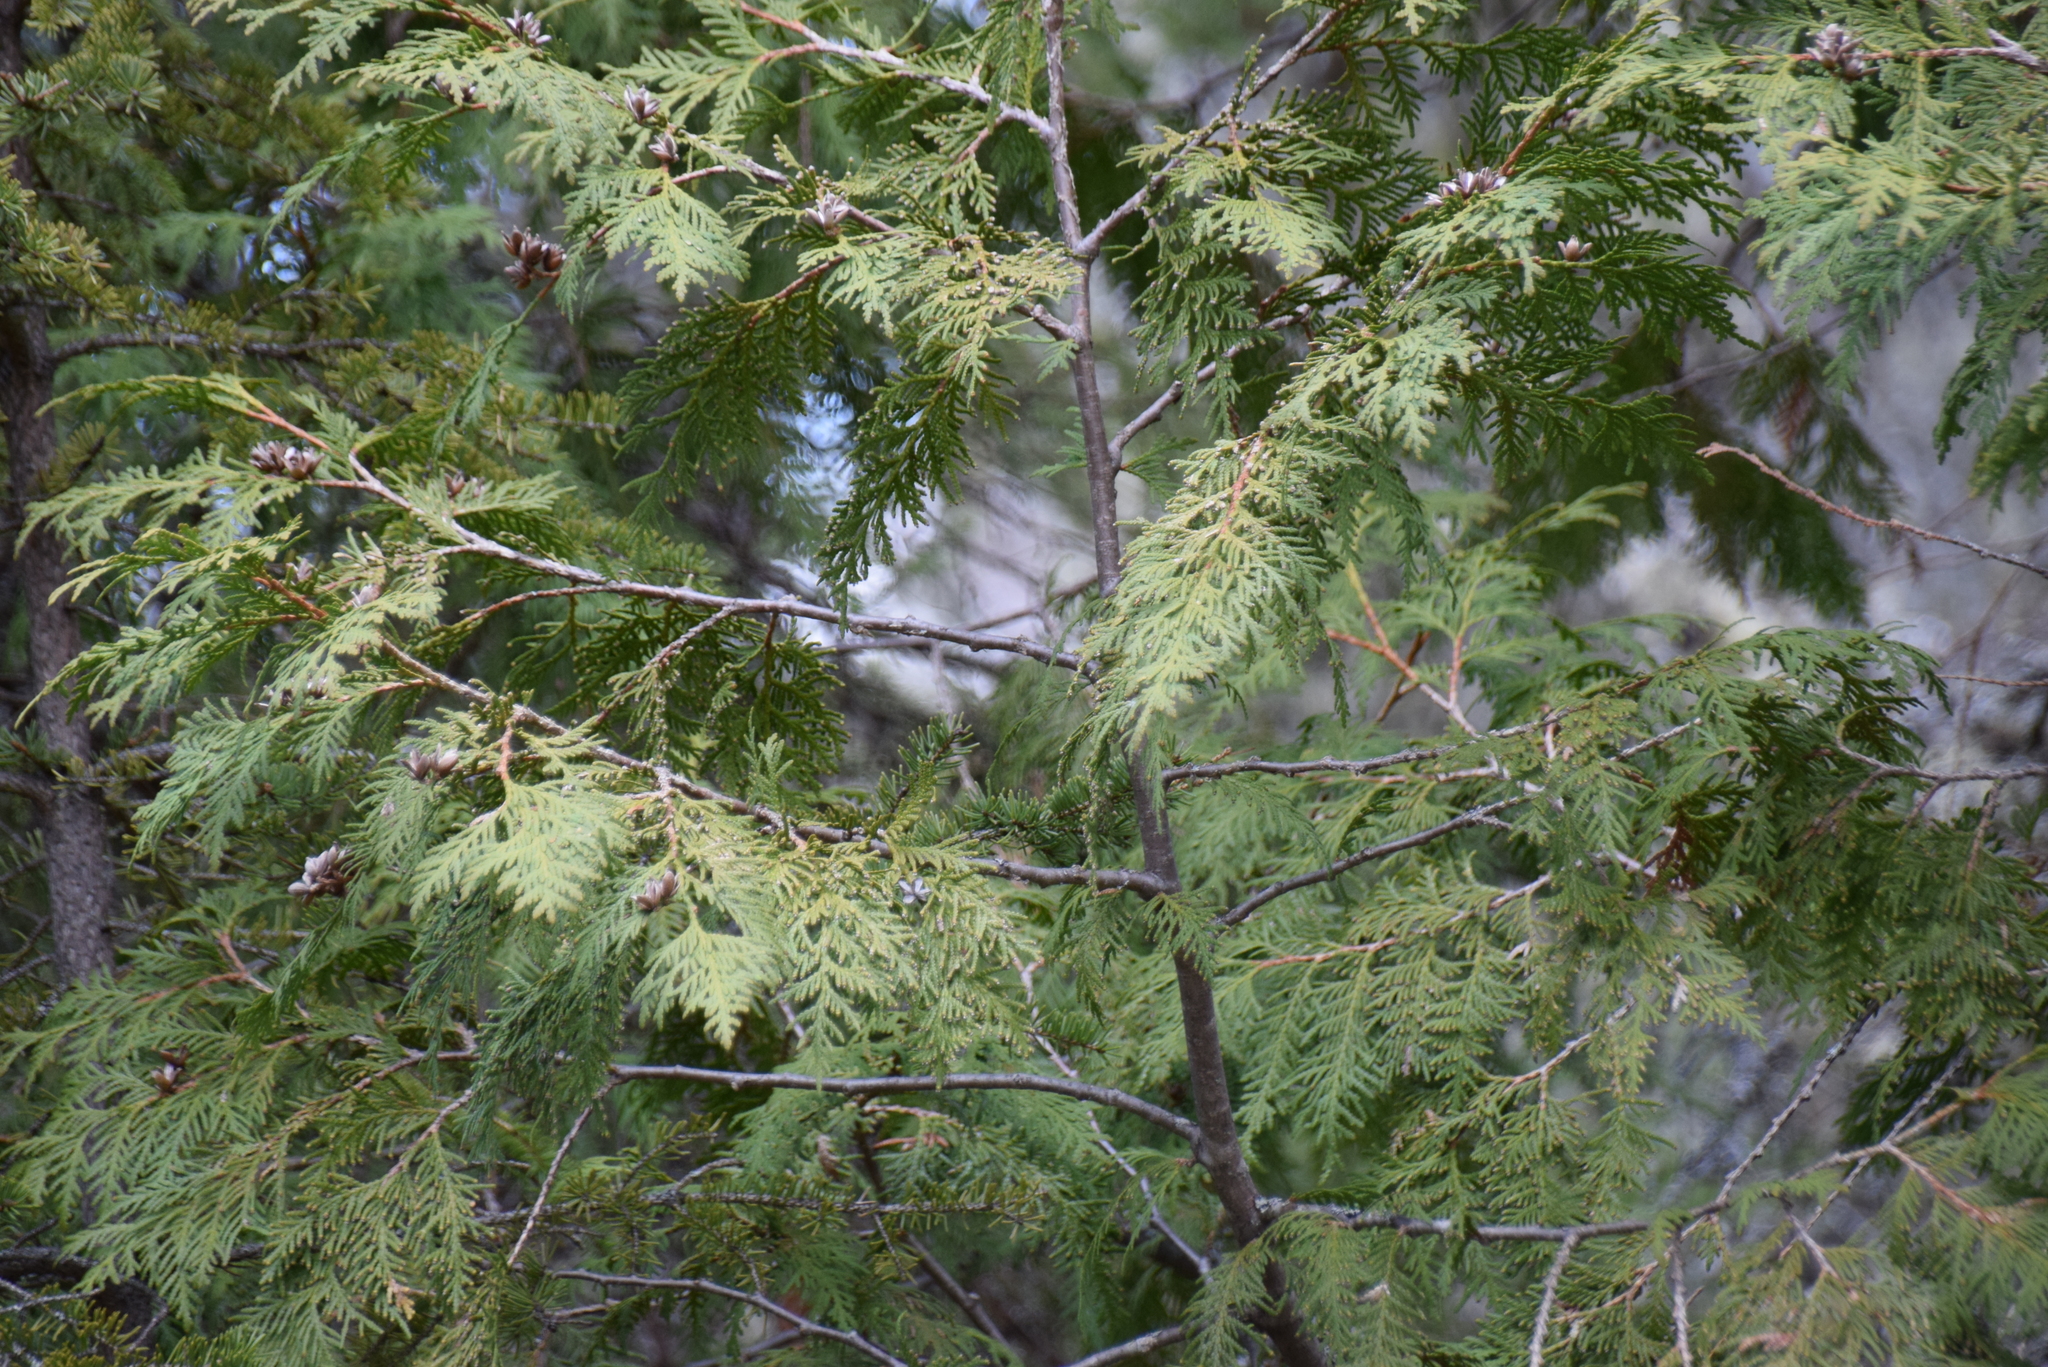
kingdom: Plantae
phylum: Tracheophyta
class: Pinopsida
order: Pinales
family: Cupressaceae
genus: Thuja
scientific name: Thuja occidentalis
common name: Northern white-cedar
